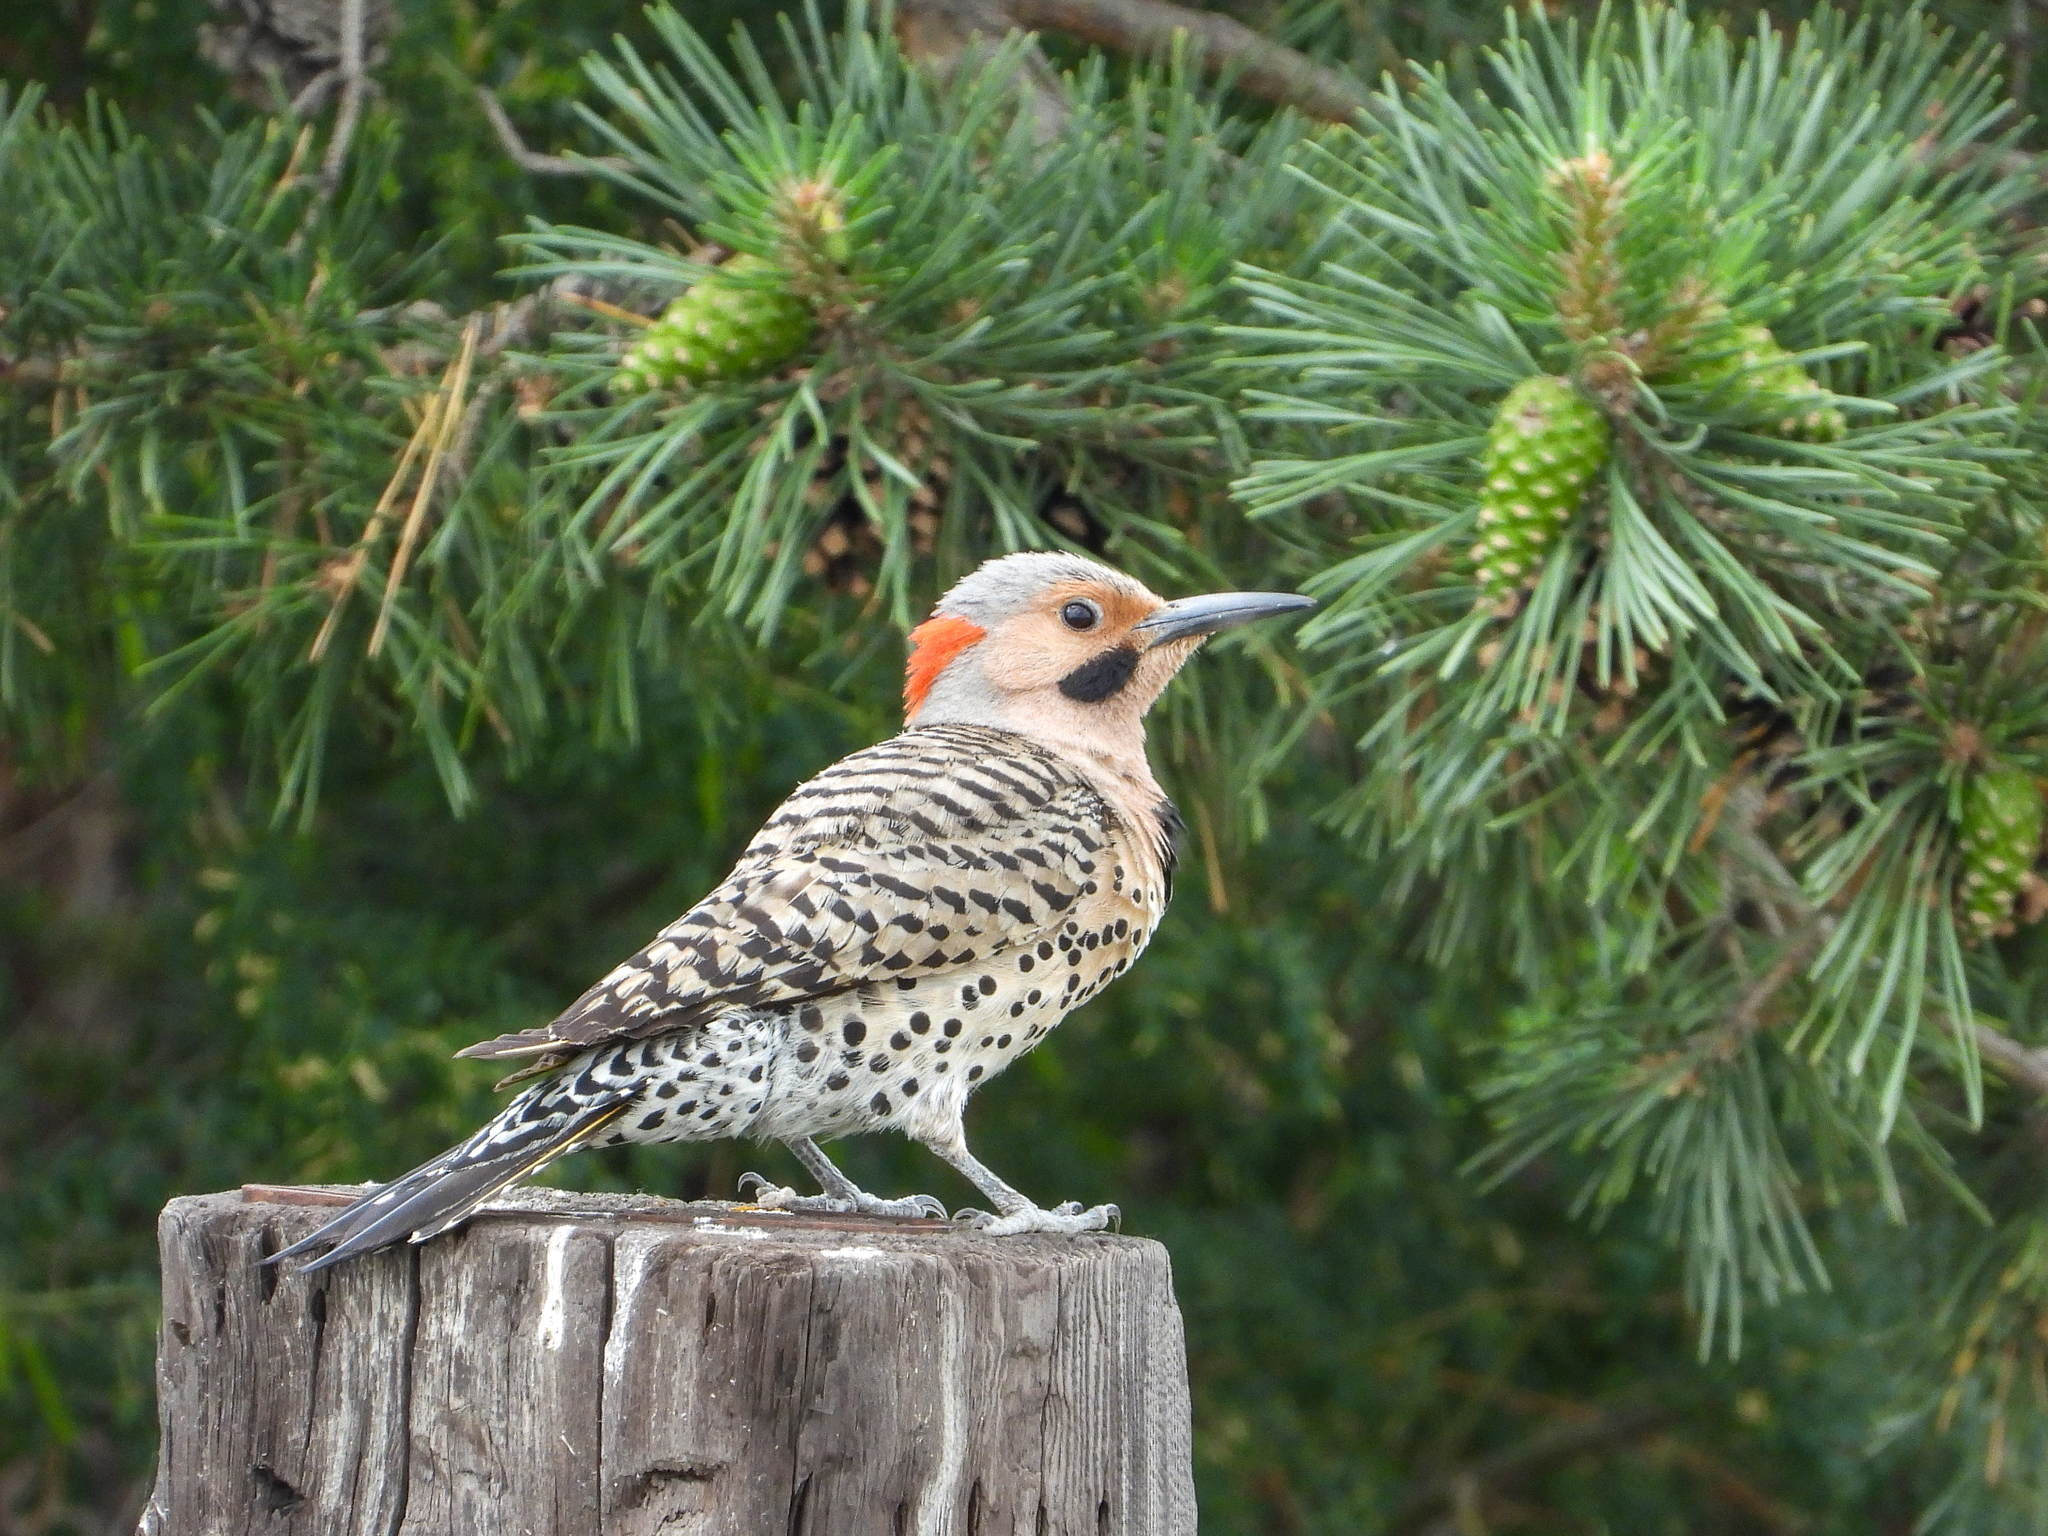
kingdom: Animalia
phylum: Chordata
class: Aves
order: Piciformes
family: Picidae
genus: Colaptes
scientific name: Colaptes auratus
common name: Northern flicker
